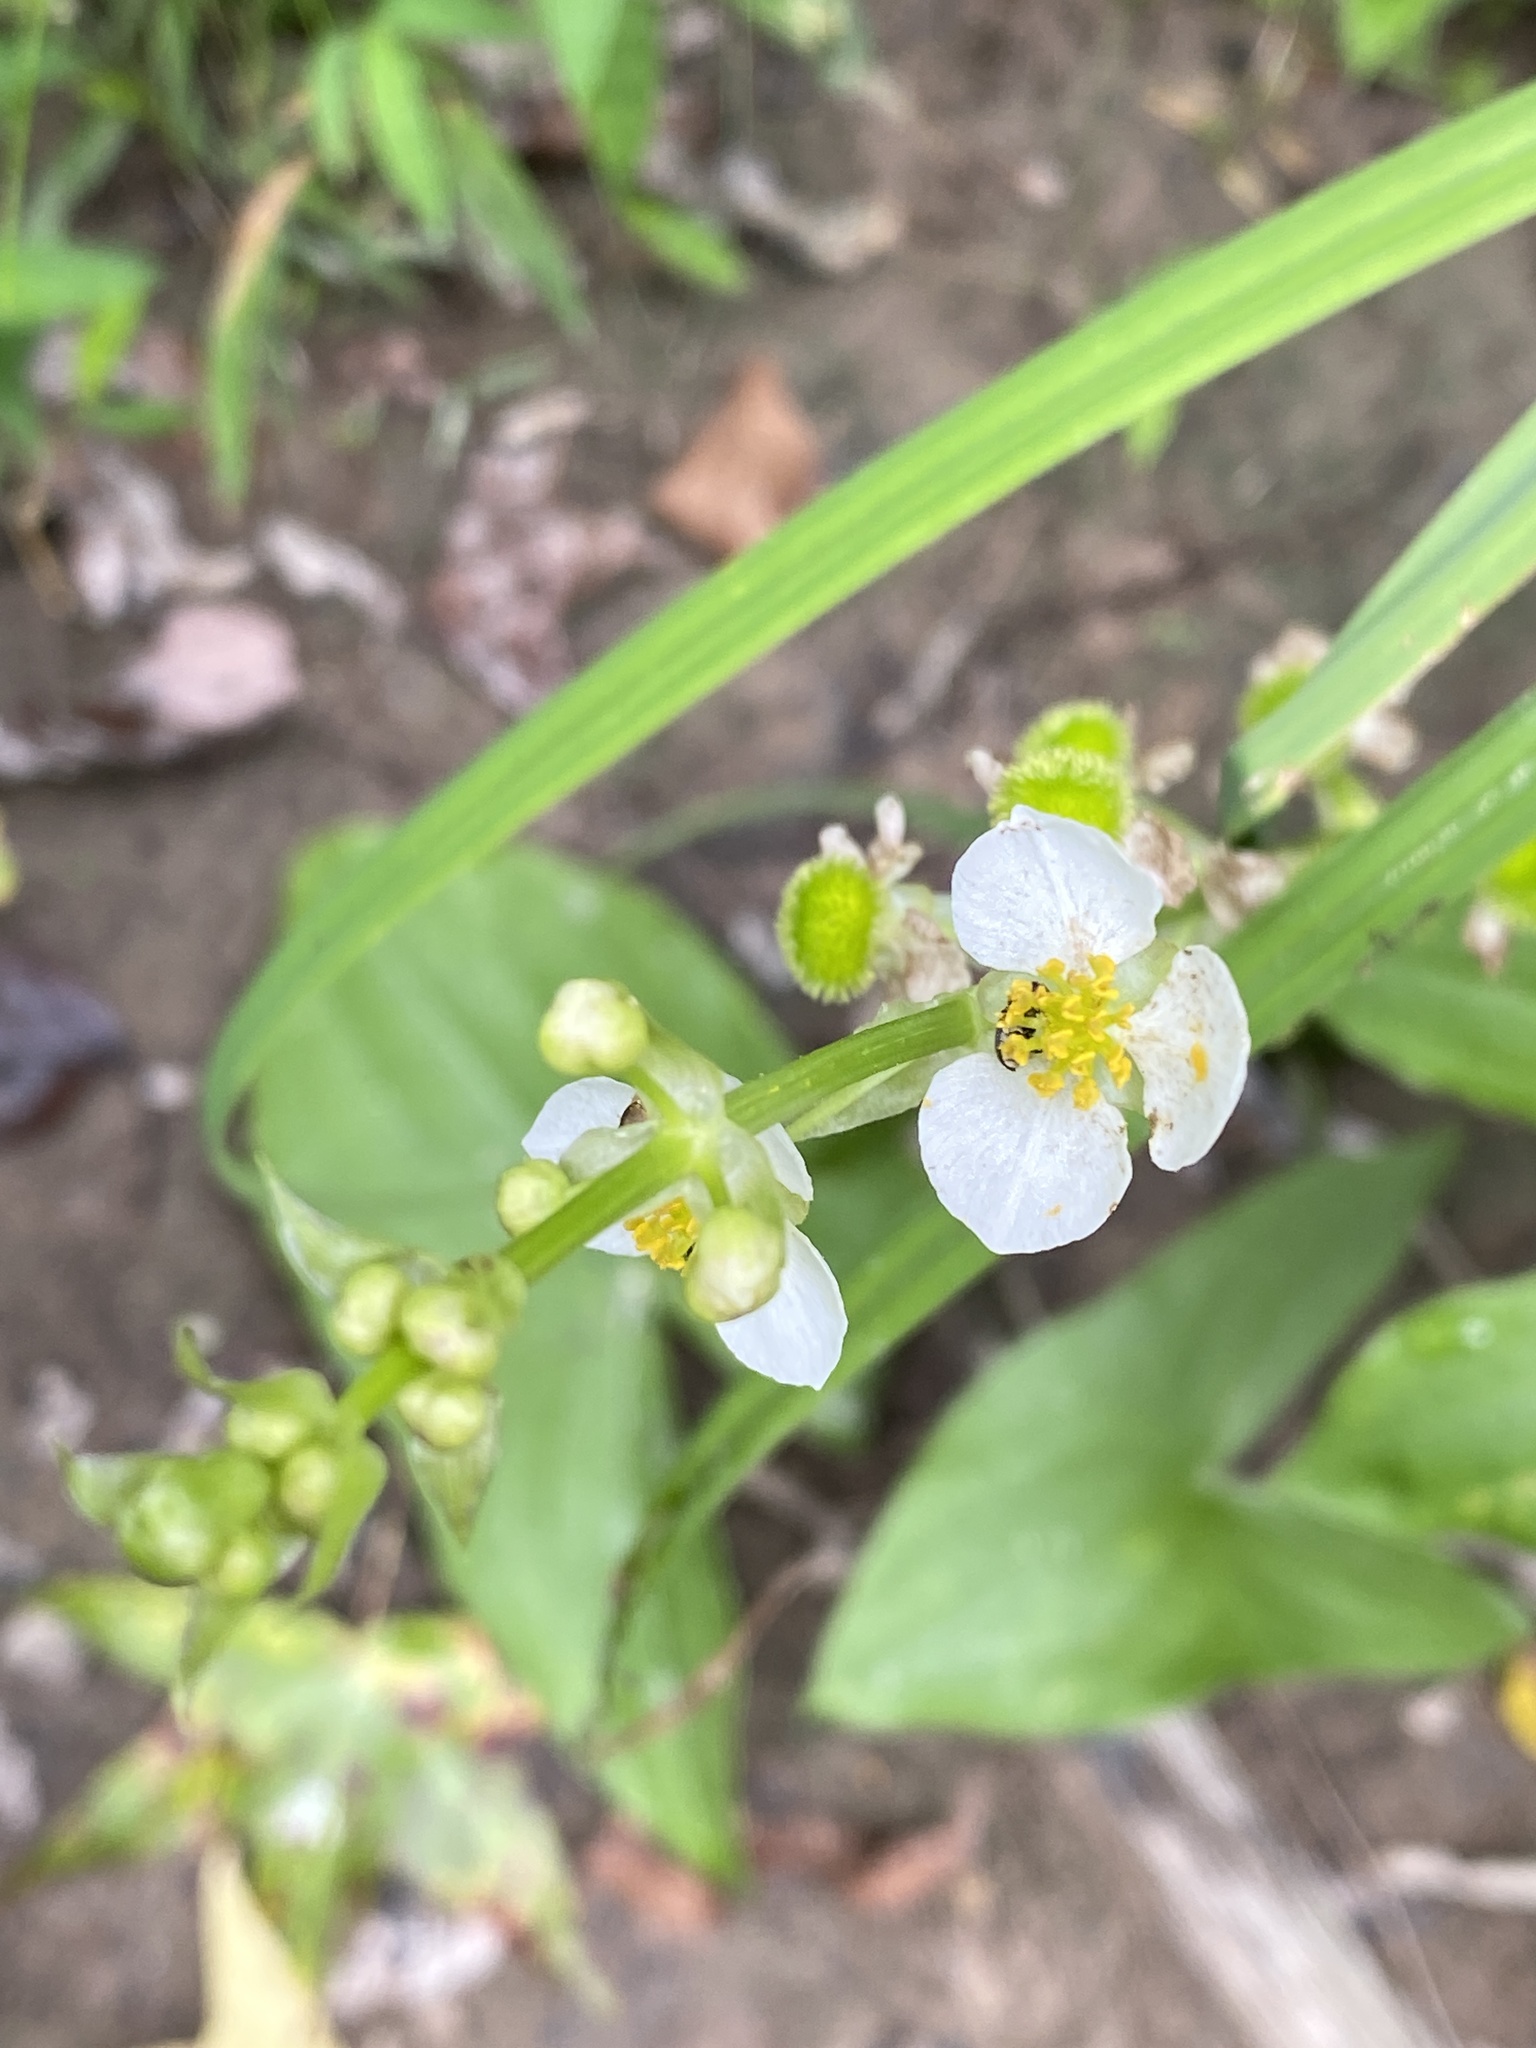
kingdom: Plantae
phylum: Tracheophyta
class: Liliopsida
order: Alismatales
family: Alismataceae
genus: Sagittaria
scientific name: Sagittaria australis
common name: Appalachian arrowhead
